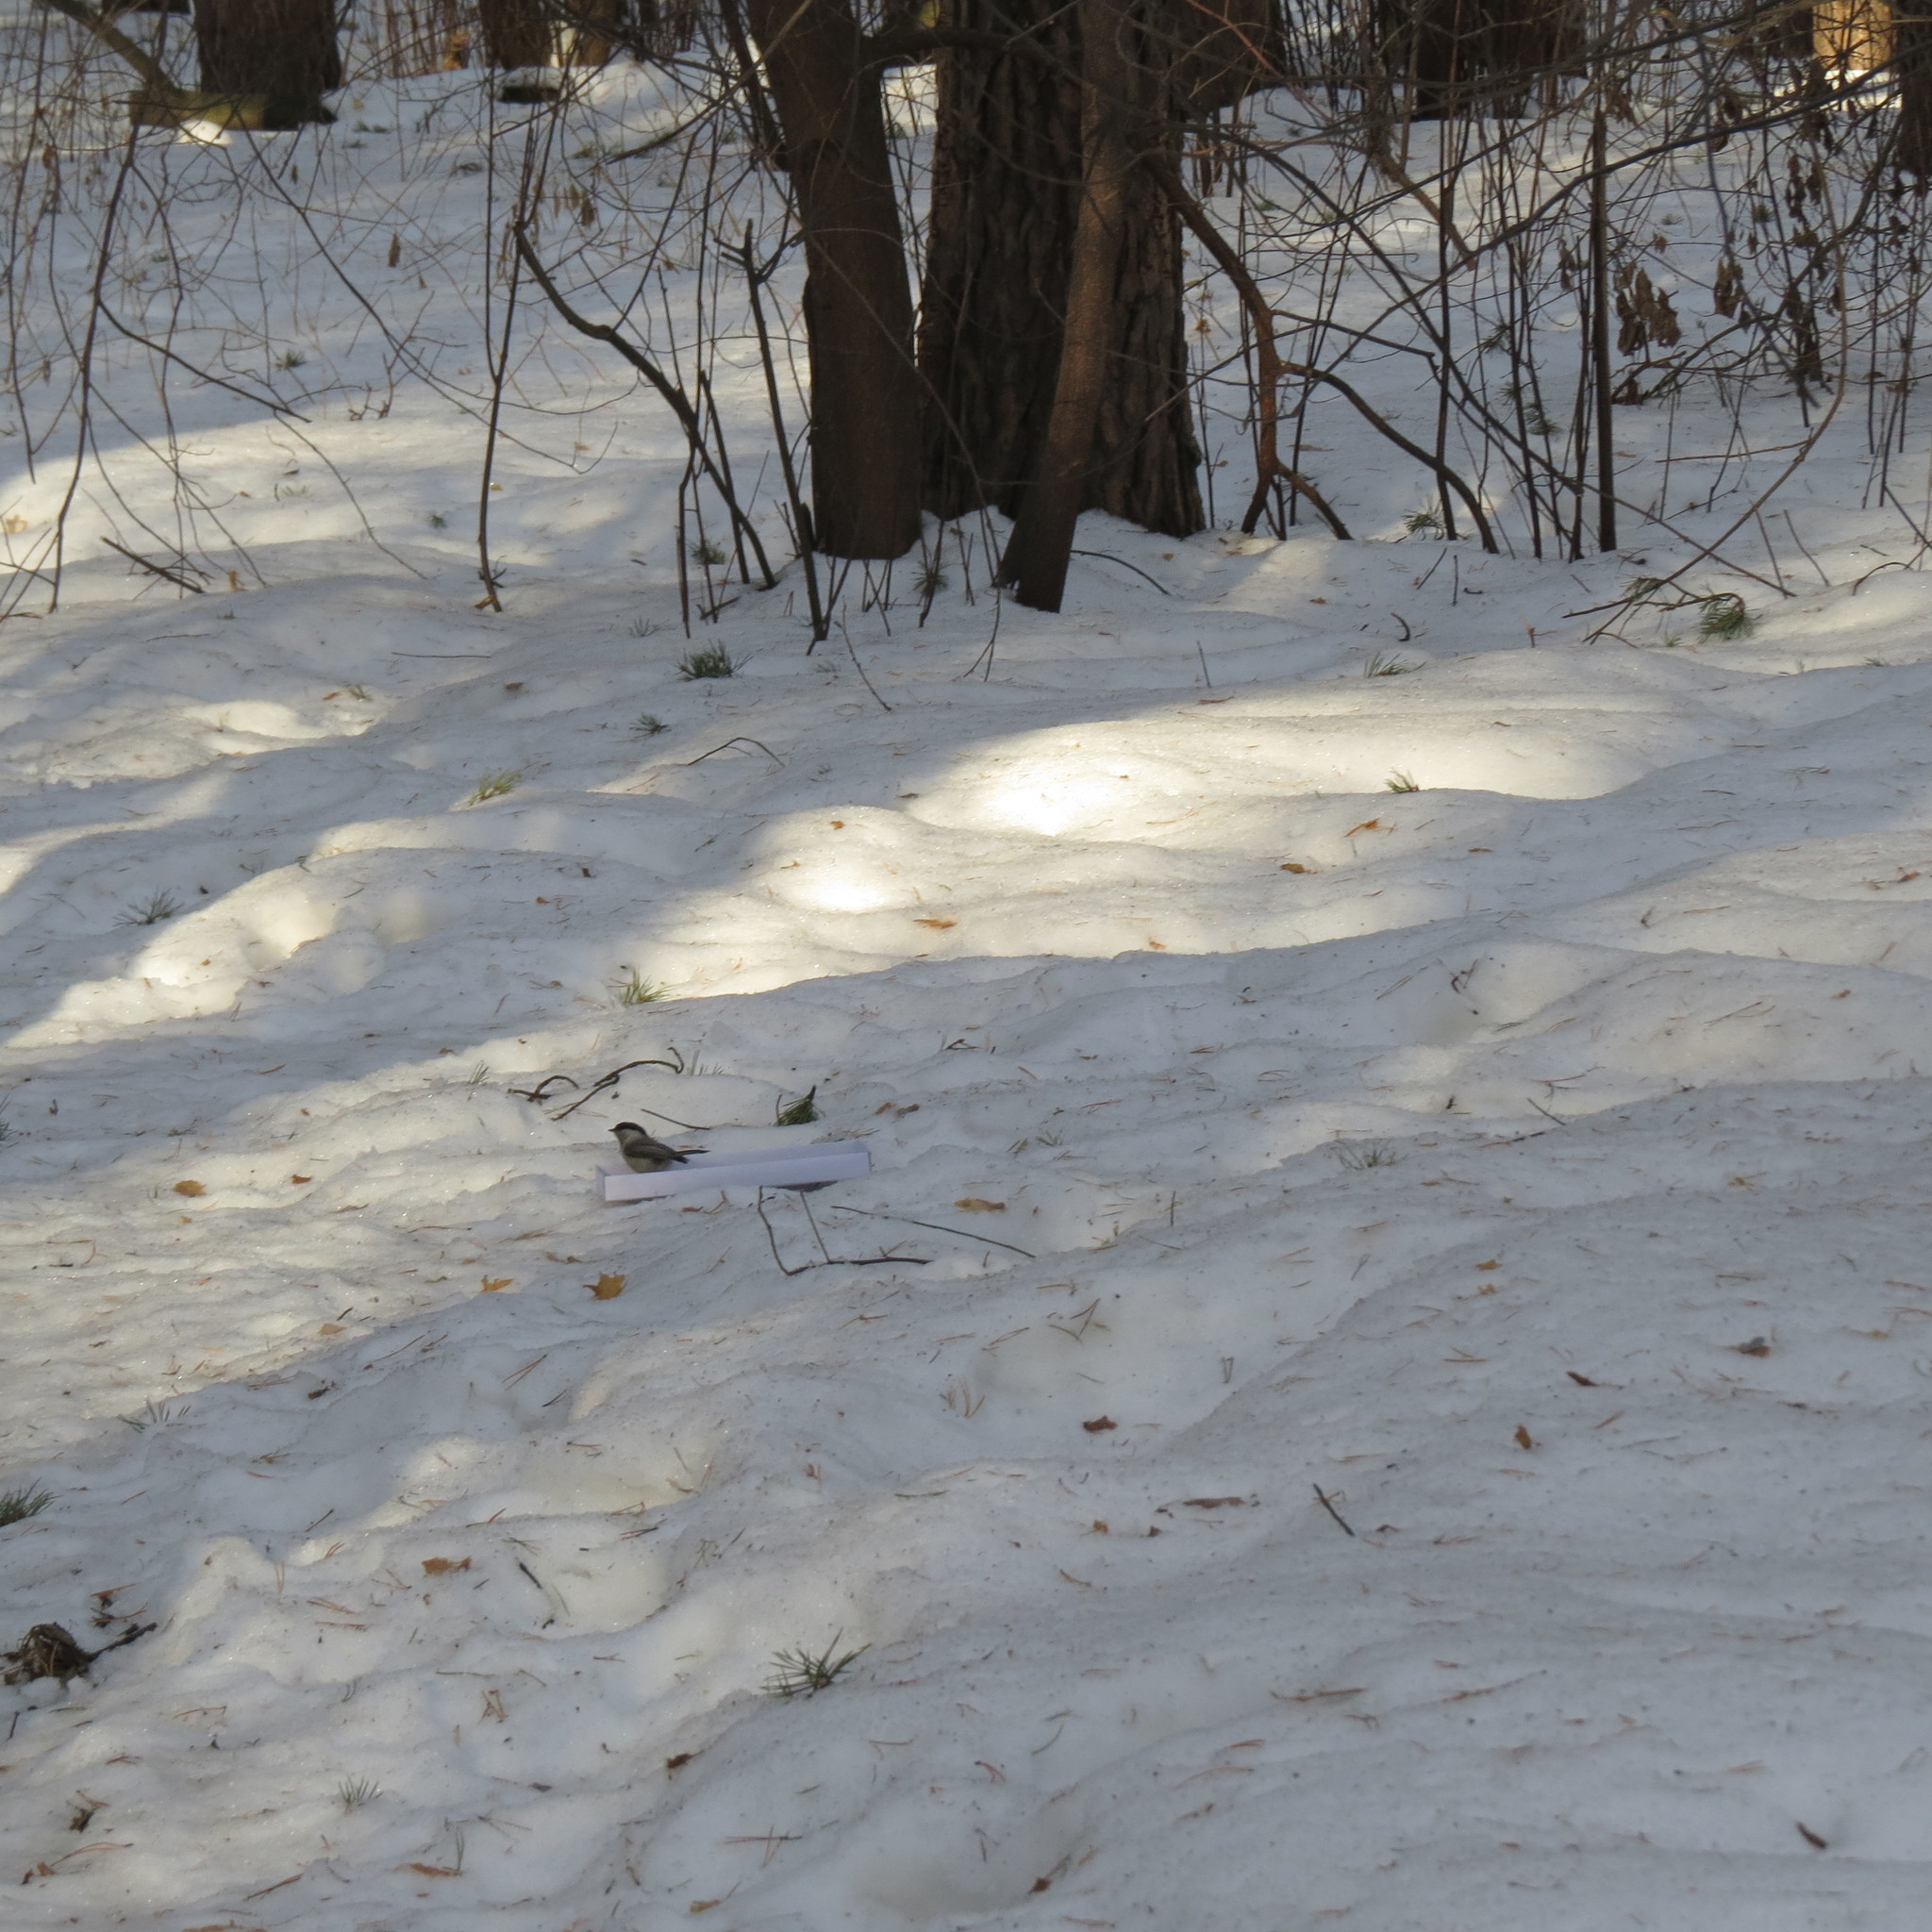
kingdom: Animalia
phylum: Chordata
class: Aves
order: Passeriformes
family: Paridae
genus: Poecile
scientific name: Poecile montanus
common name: Willow tit
